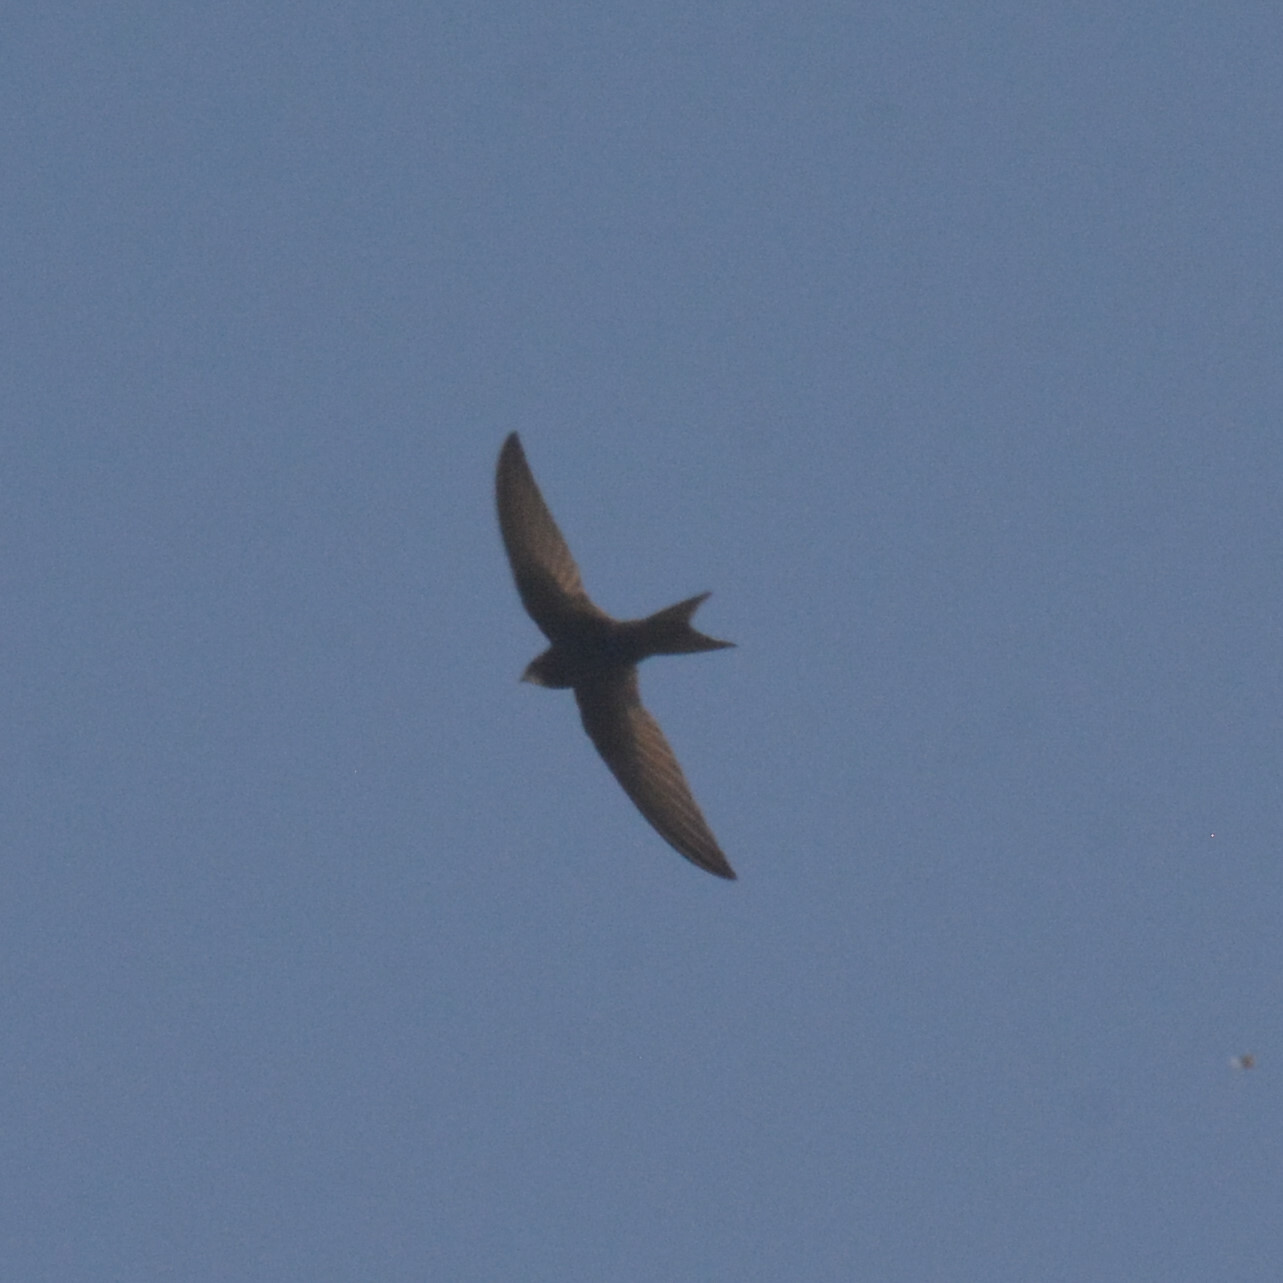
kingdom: Animalia
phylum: Chordata
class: Aves
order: Apodiformes
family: Apodidae
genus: Apus
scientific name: Apus apus
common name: Common swift
